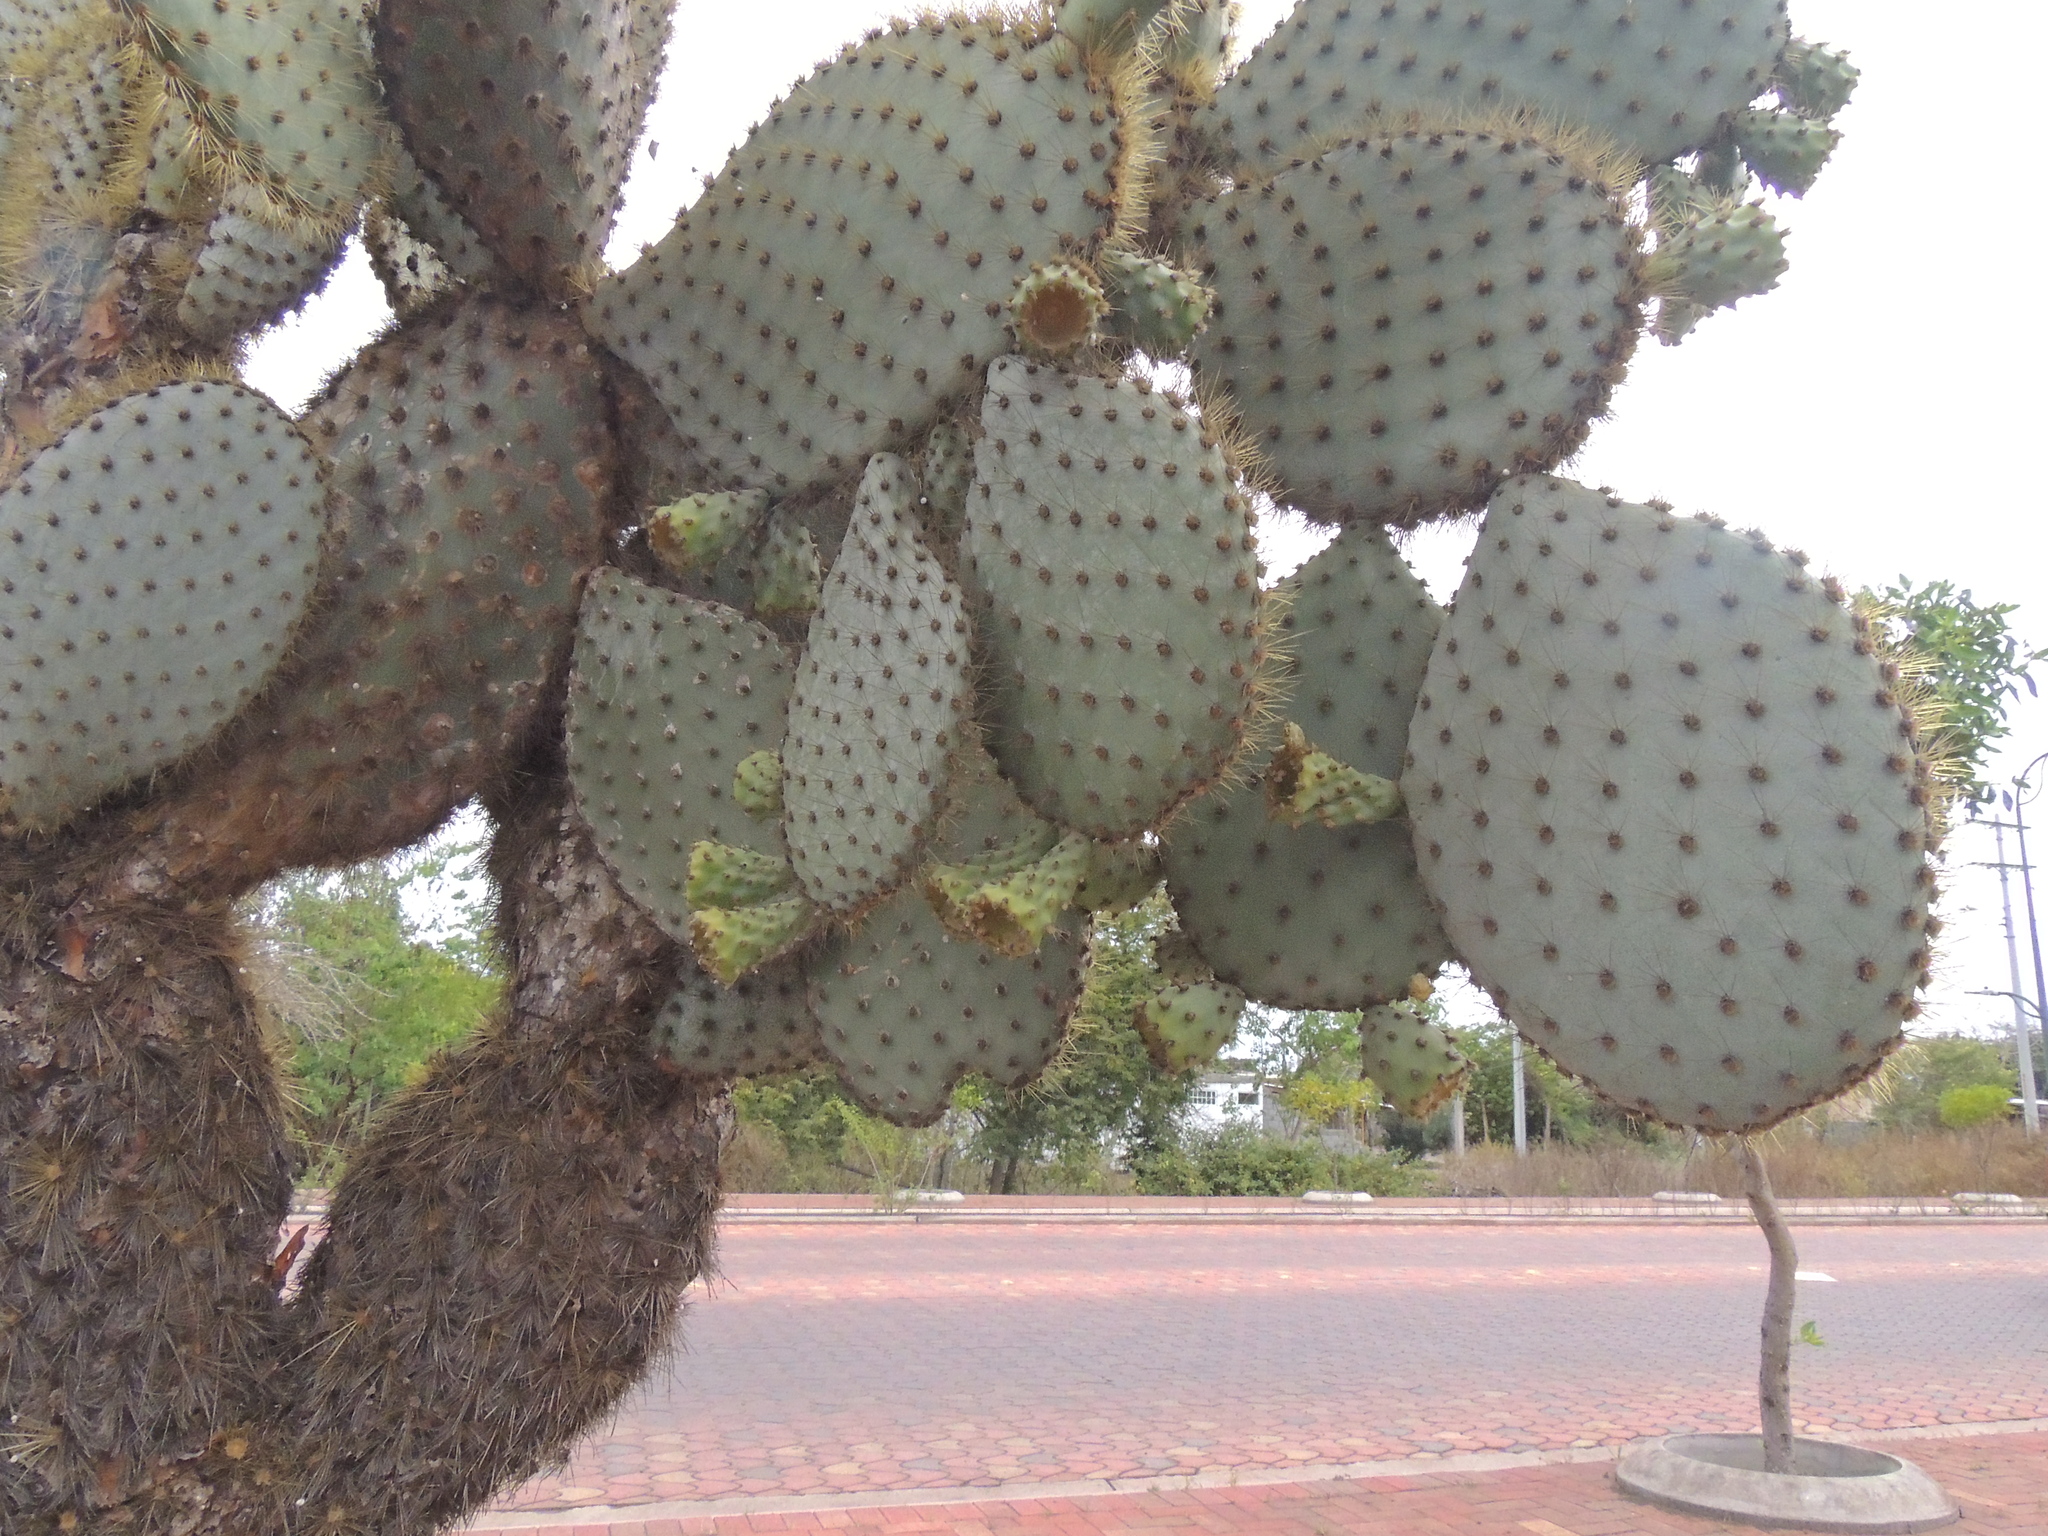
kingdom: Plantae
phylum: Tracheophyta
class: Magnoliopsida
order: Caryophyllales
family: Cactaceae
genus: Opuntia
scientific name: Opuntia galapageia
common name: Galápagos prickly pear
